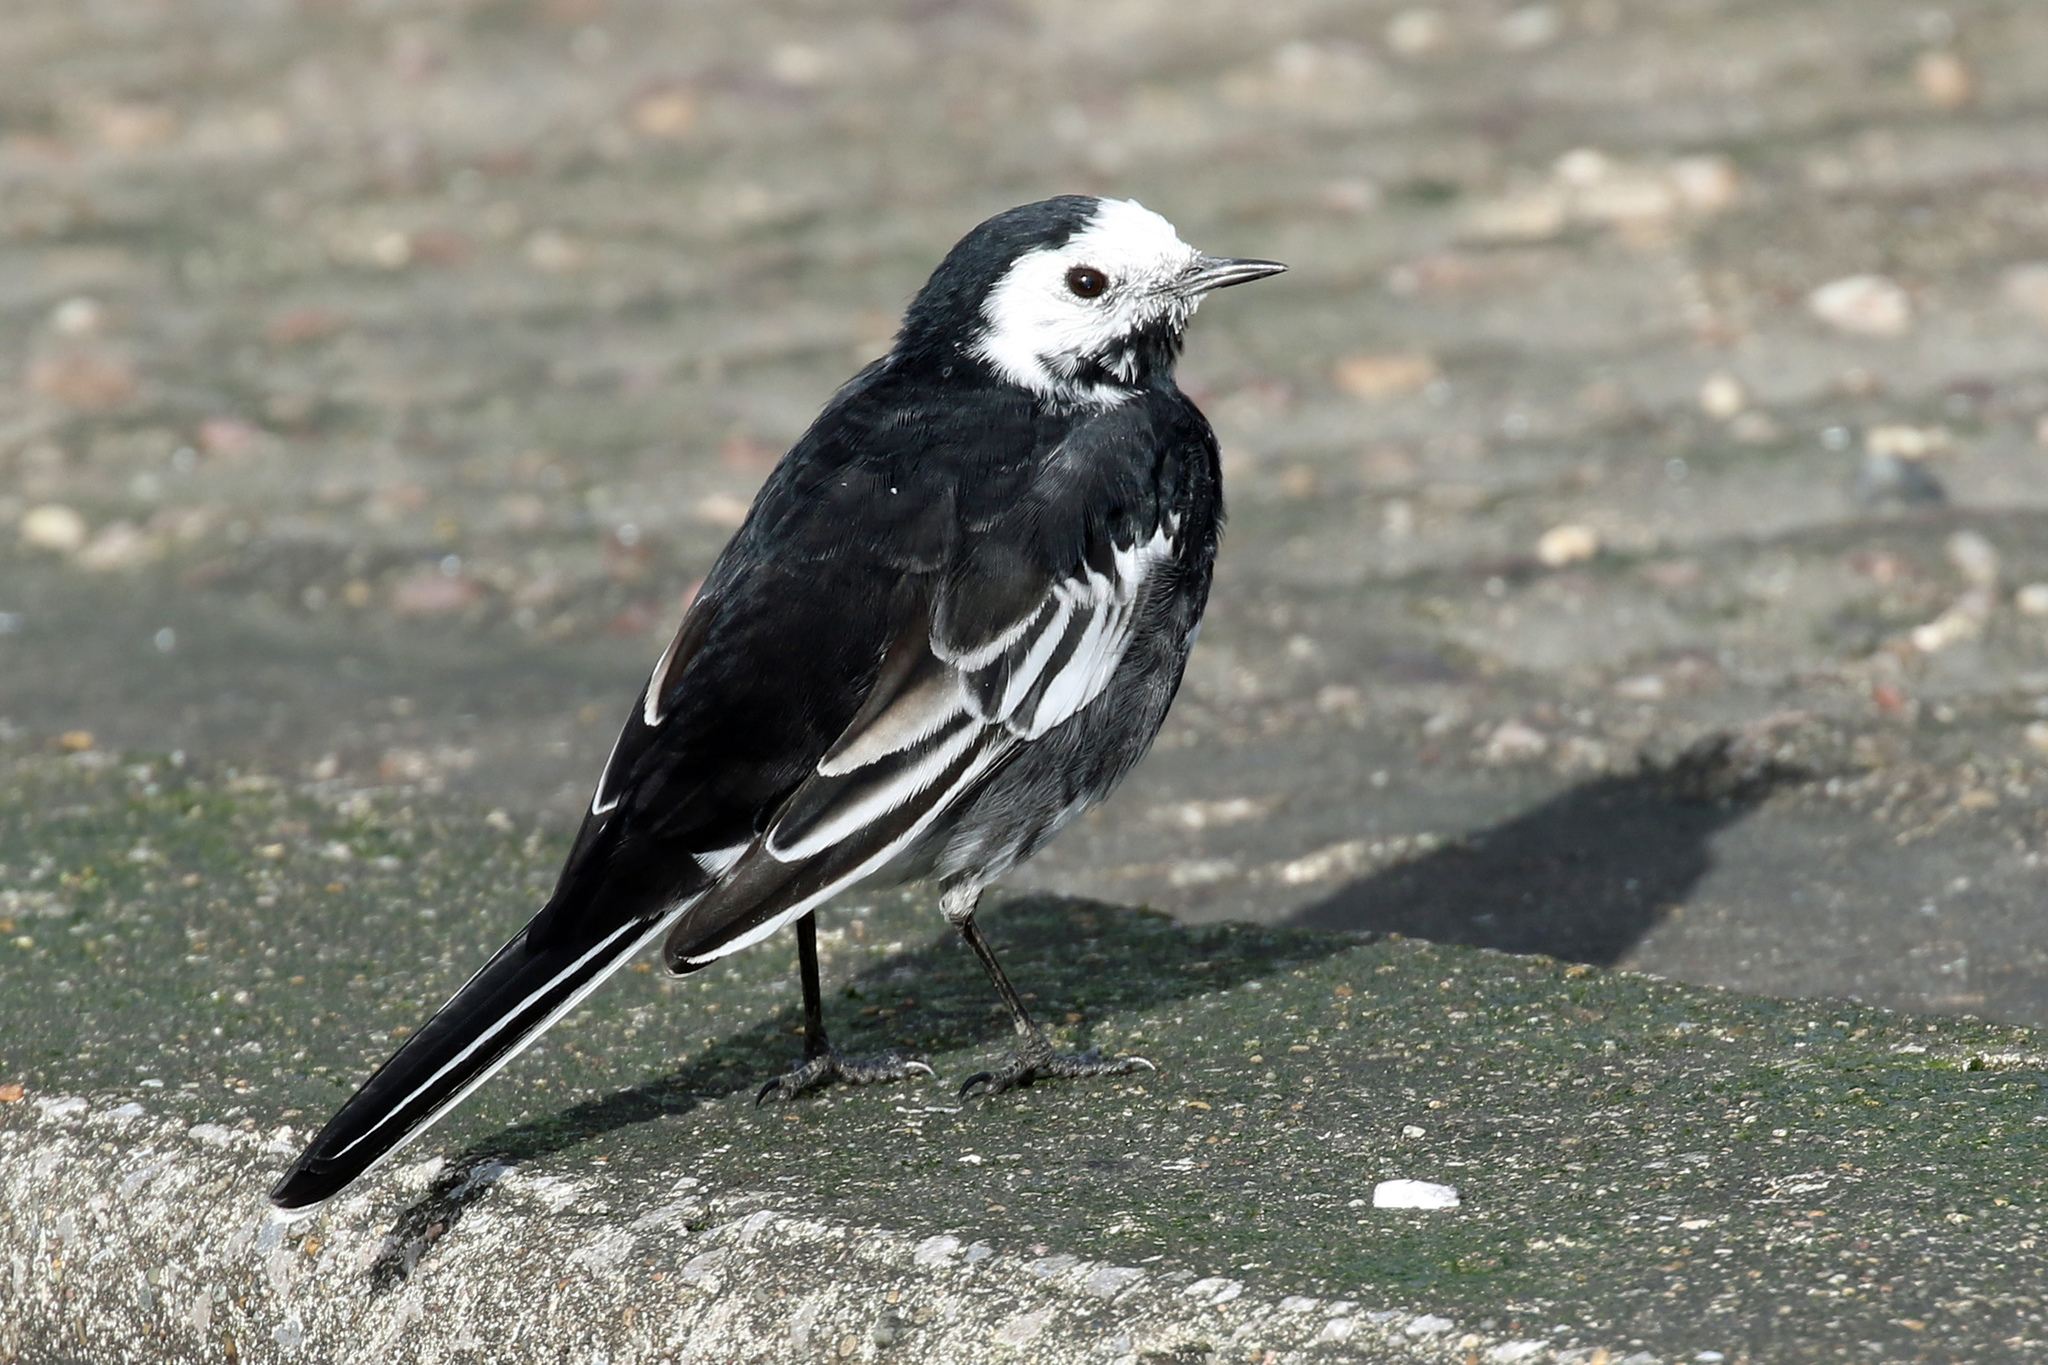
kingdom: Animalia
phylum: Chordata
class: Aves
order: Passeriformes
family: Motacillidae
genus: Motacilla
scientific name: Motacilla alba
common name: White wagtail
